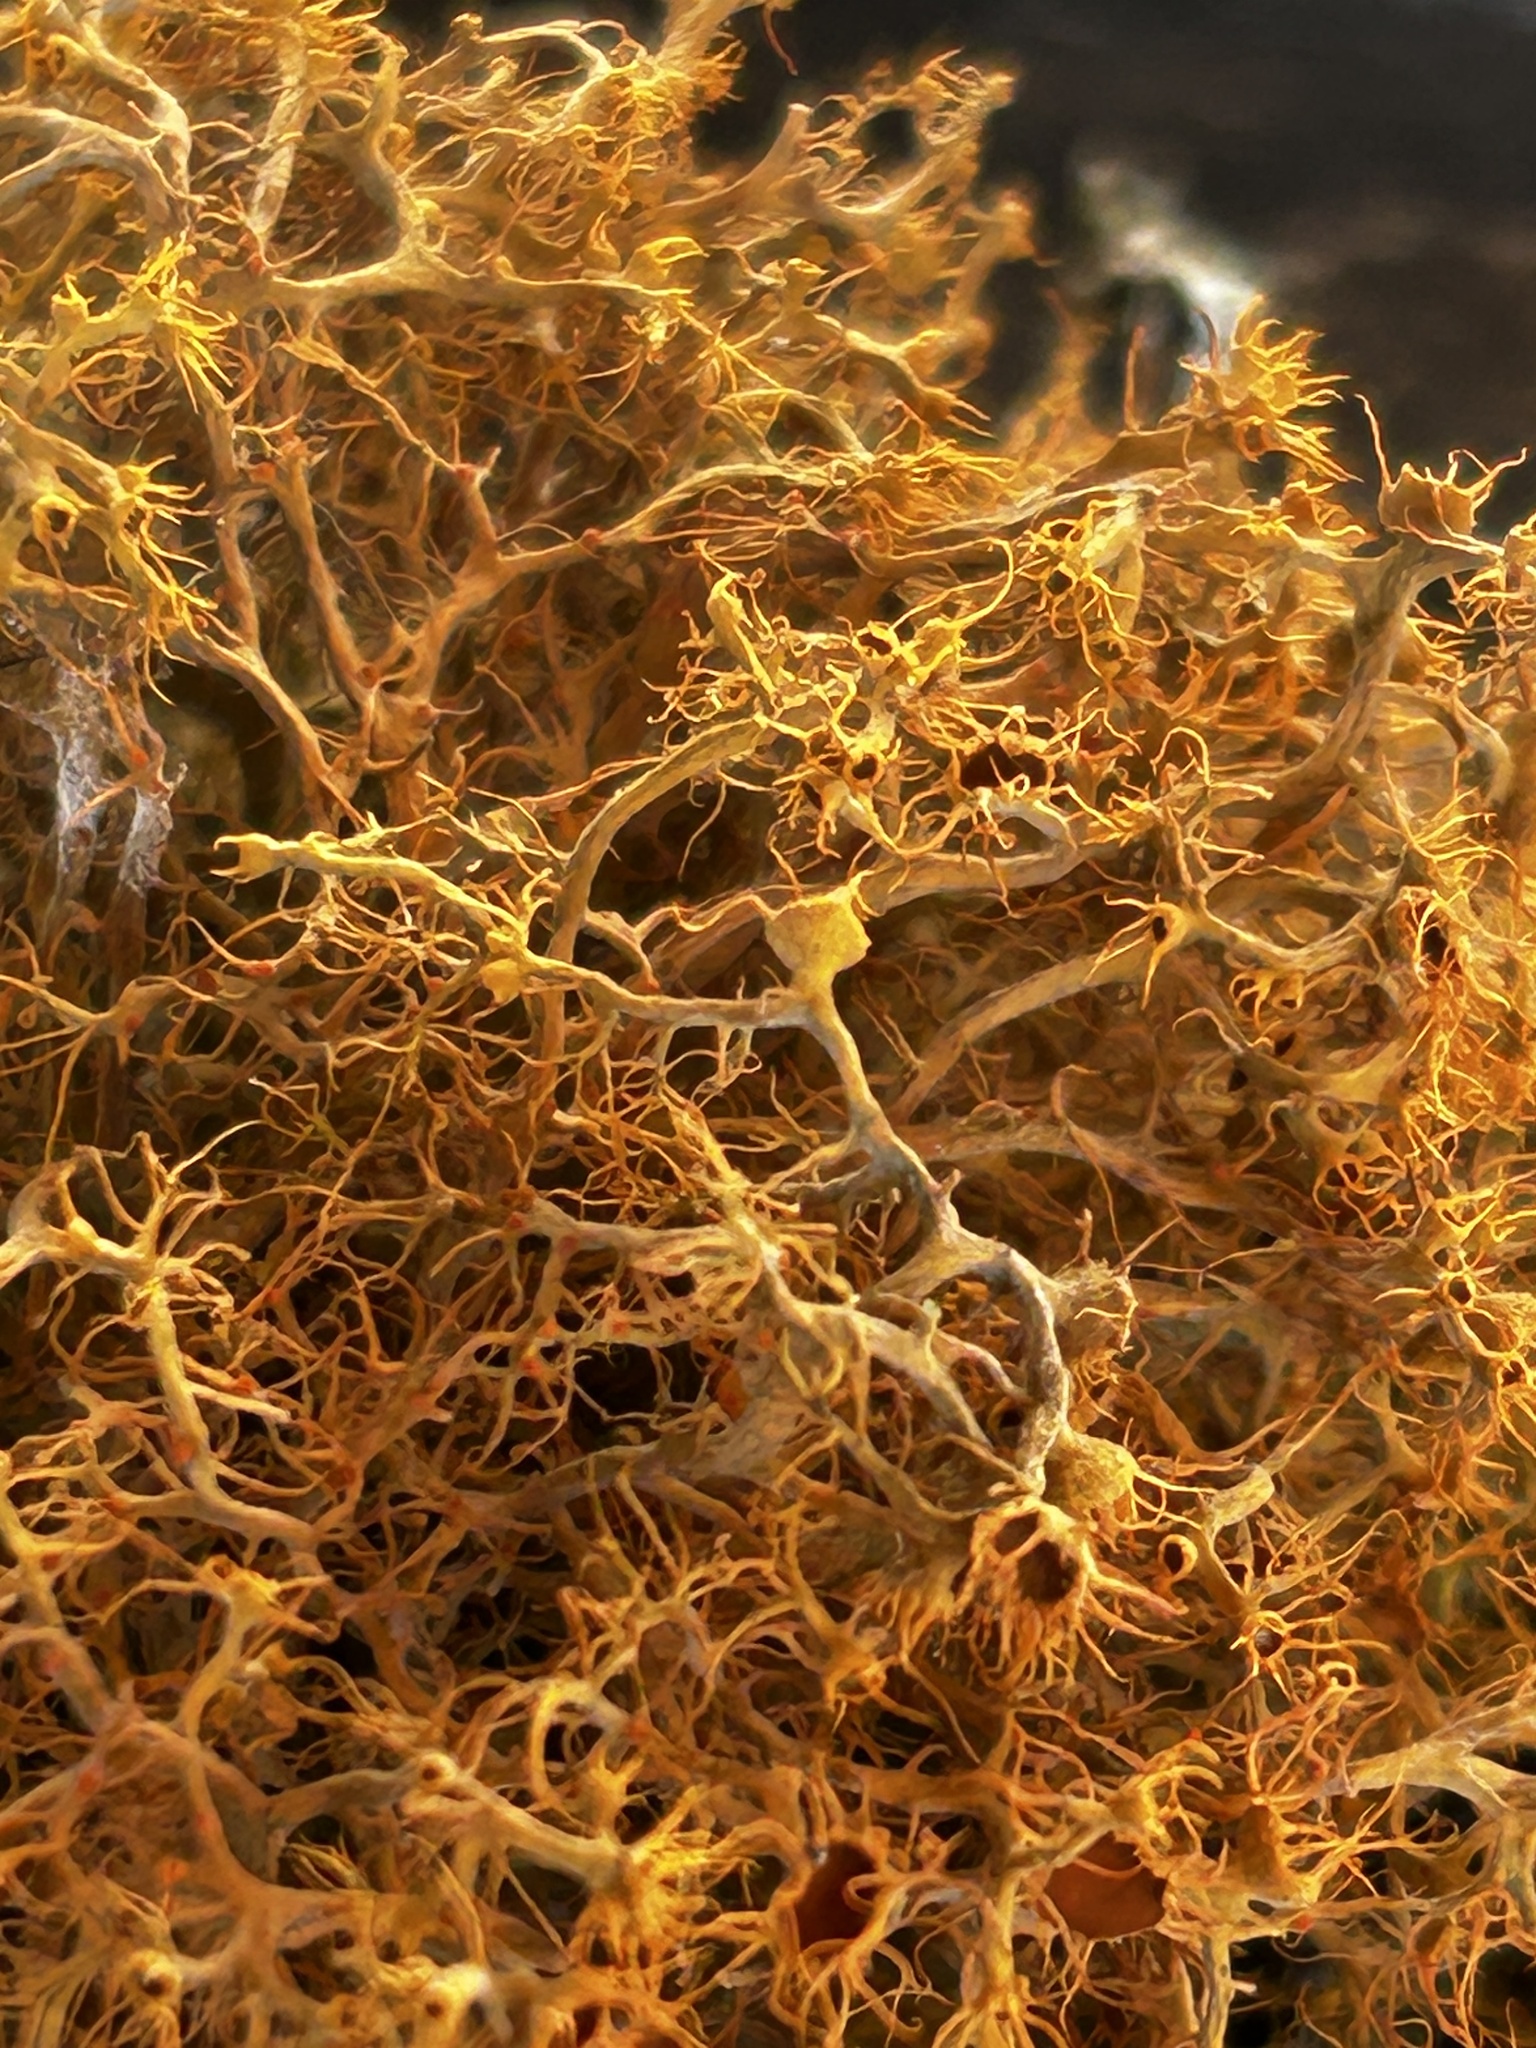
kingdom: Fungi
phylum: Ascomycota
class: Lecanoromycetes
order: Teloschistales
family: Teloschistaceae
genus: Teloschistes
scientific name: Teloschistes capensis
